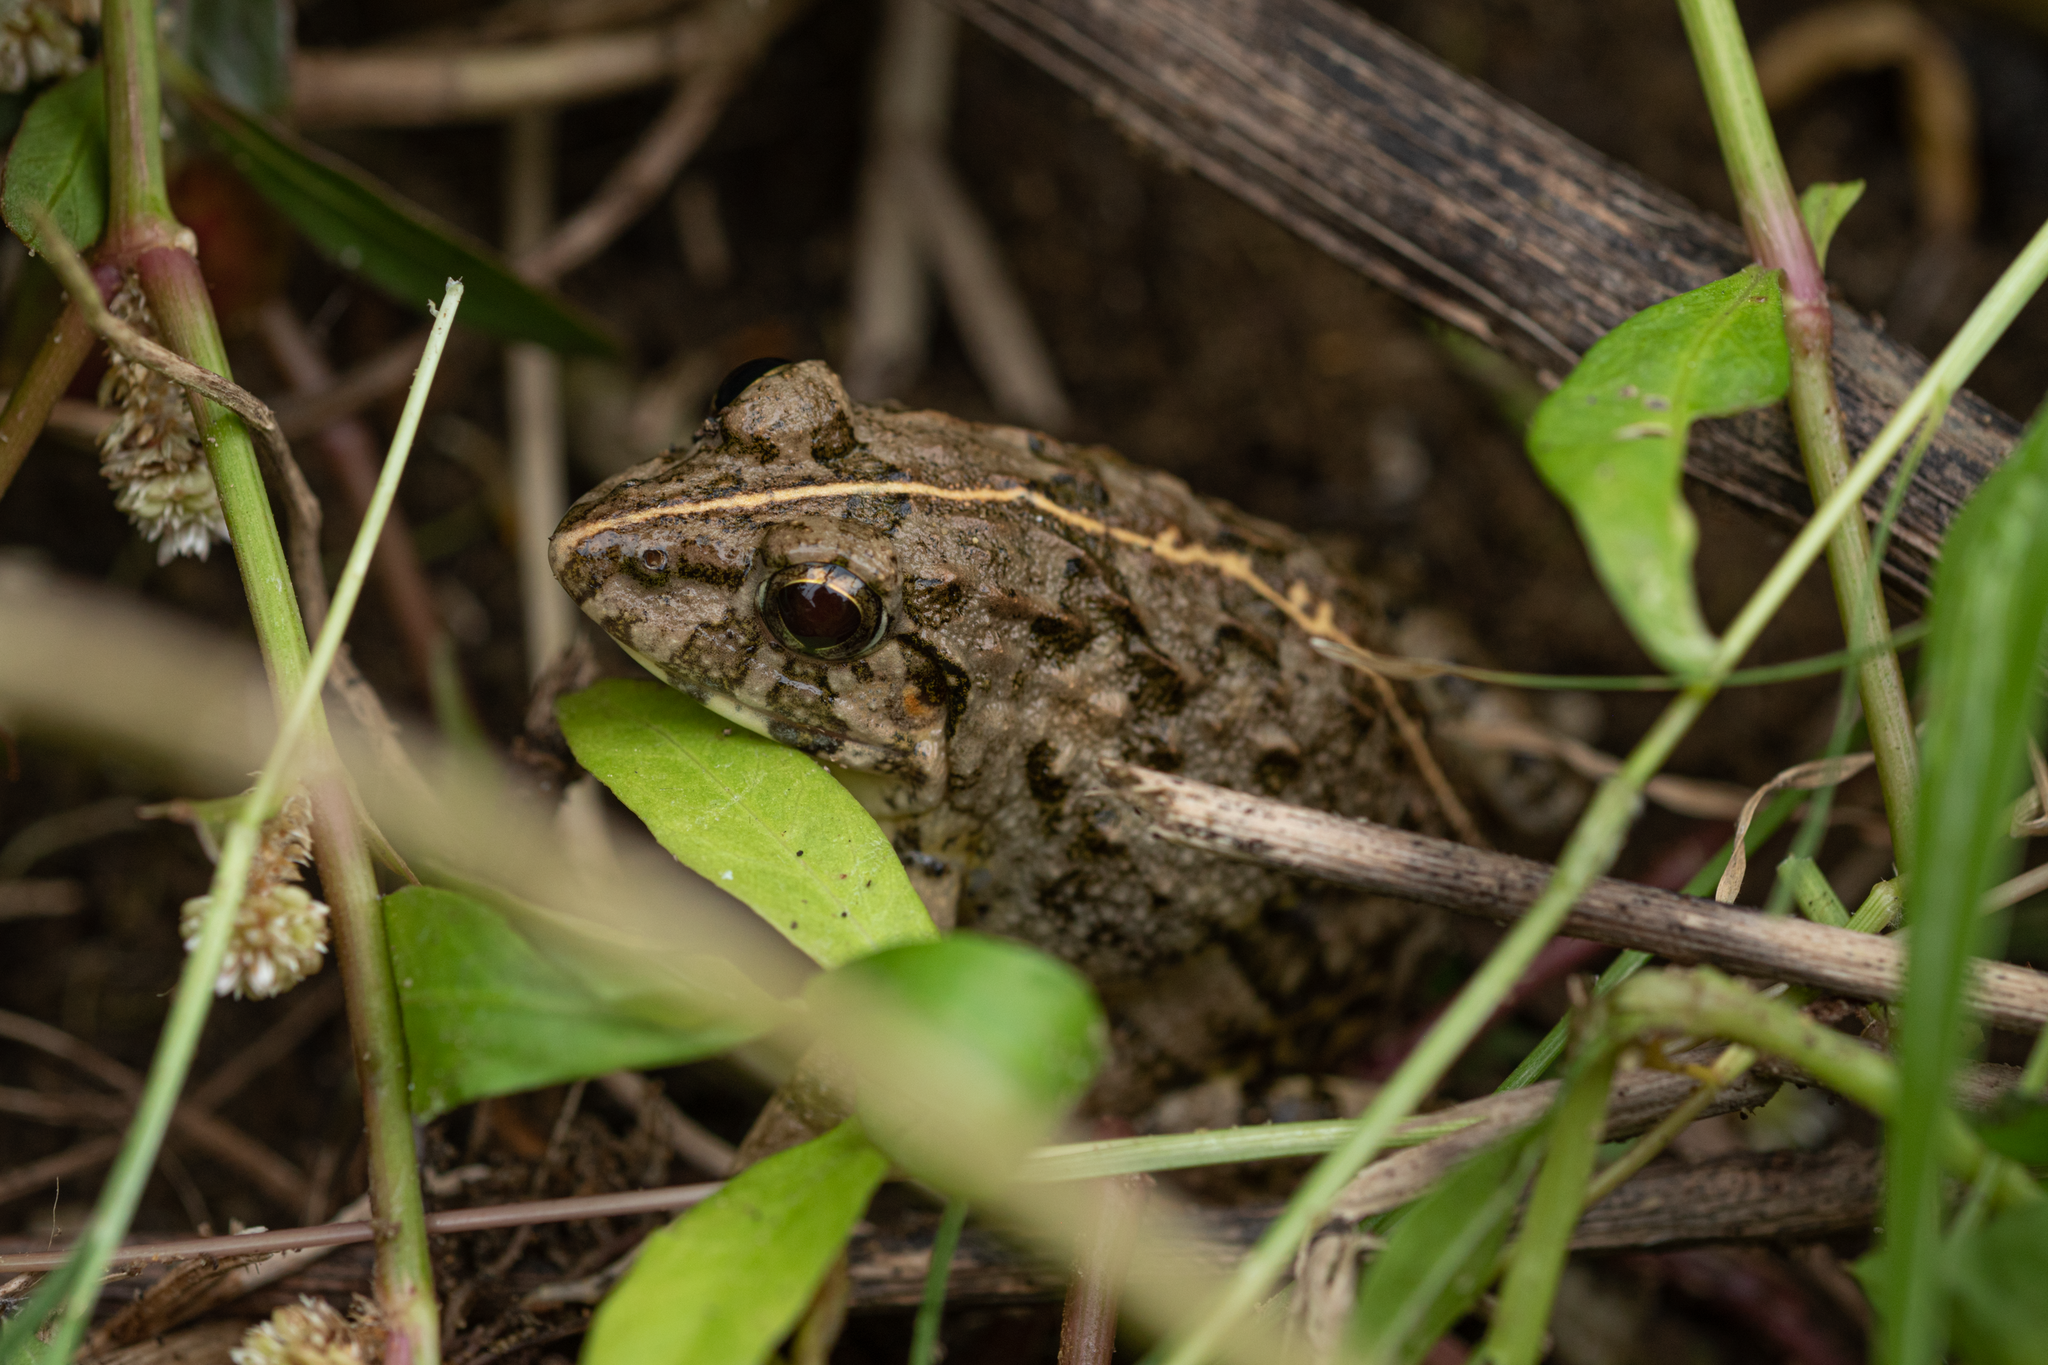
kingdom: Animalia
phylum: Chordata
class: Amphibia
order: Anura
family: Dicroglossidae
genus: Fejervarya
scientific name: Fejervarya limnocharis
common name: Asian grass frog/common pond frog/field frog/grass frog/indian rice frog
